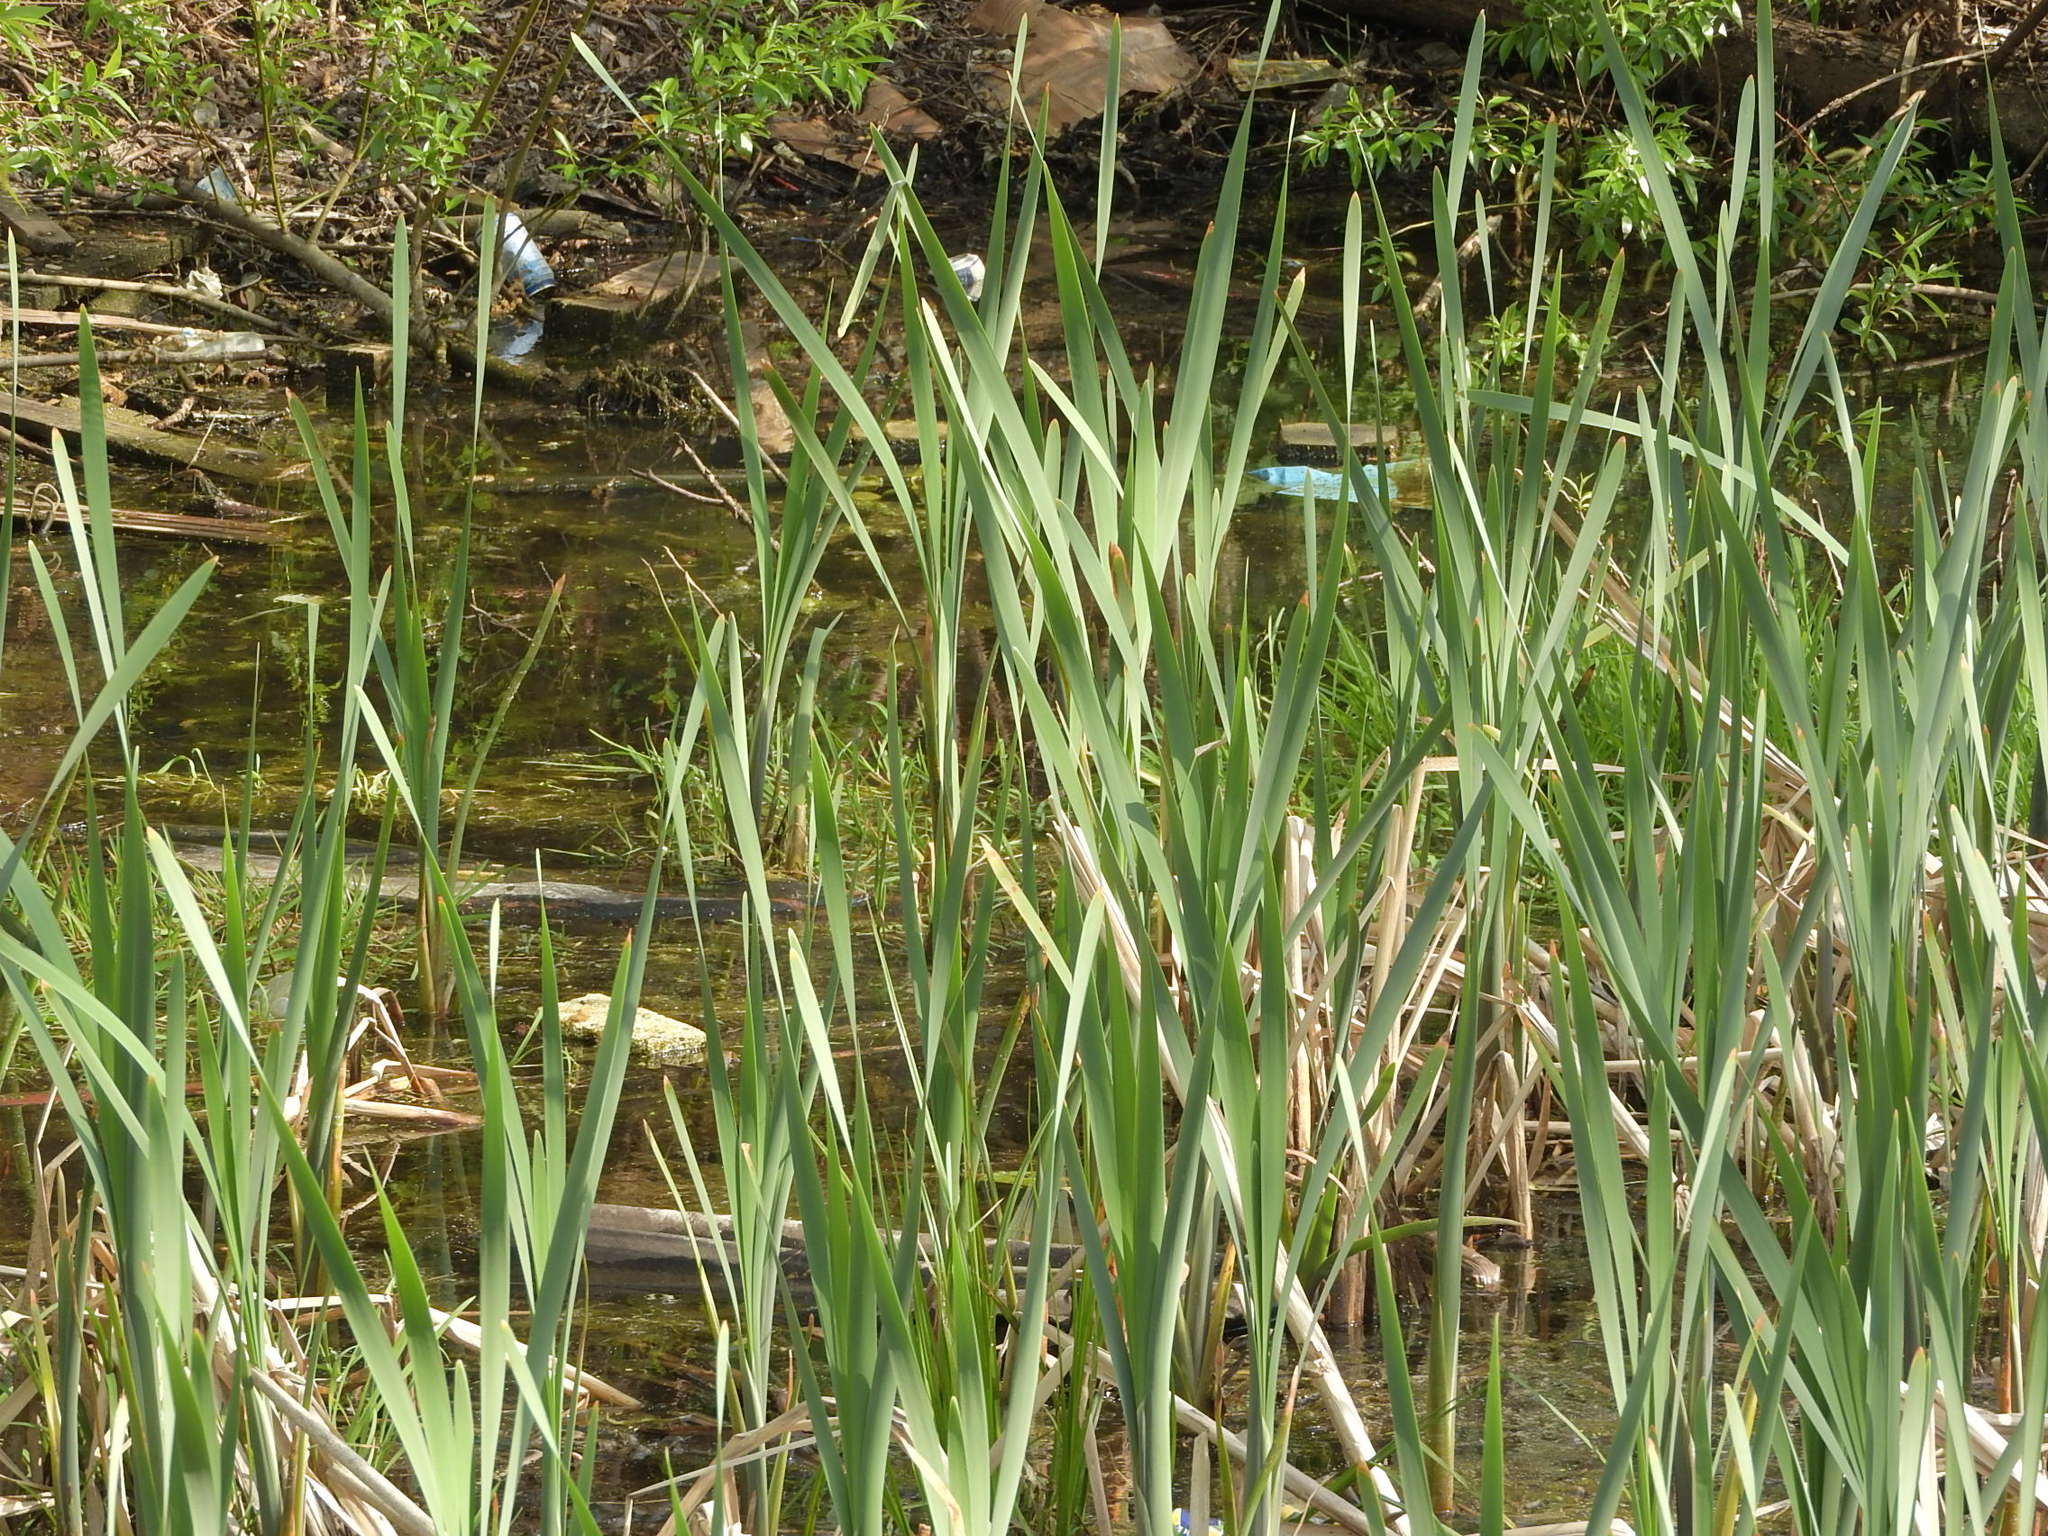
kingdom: Plantae
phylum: Tracheophyta
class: Liliopsida
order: Poales
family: Typhaceae
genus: Typha
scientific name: Typha latifolia
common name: Broadleaf cattail
